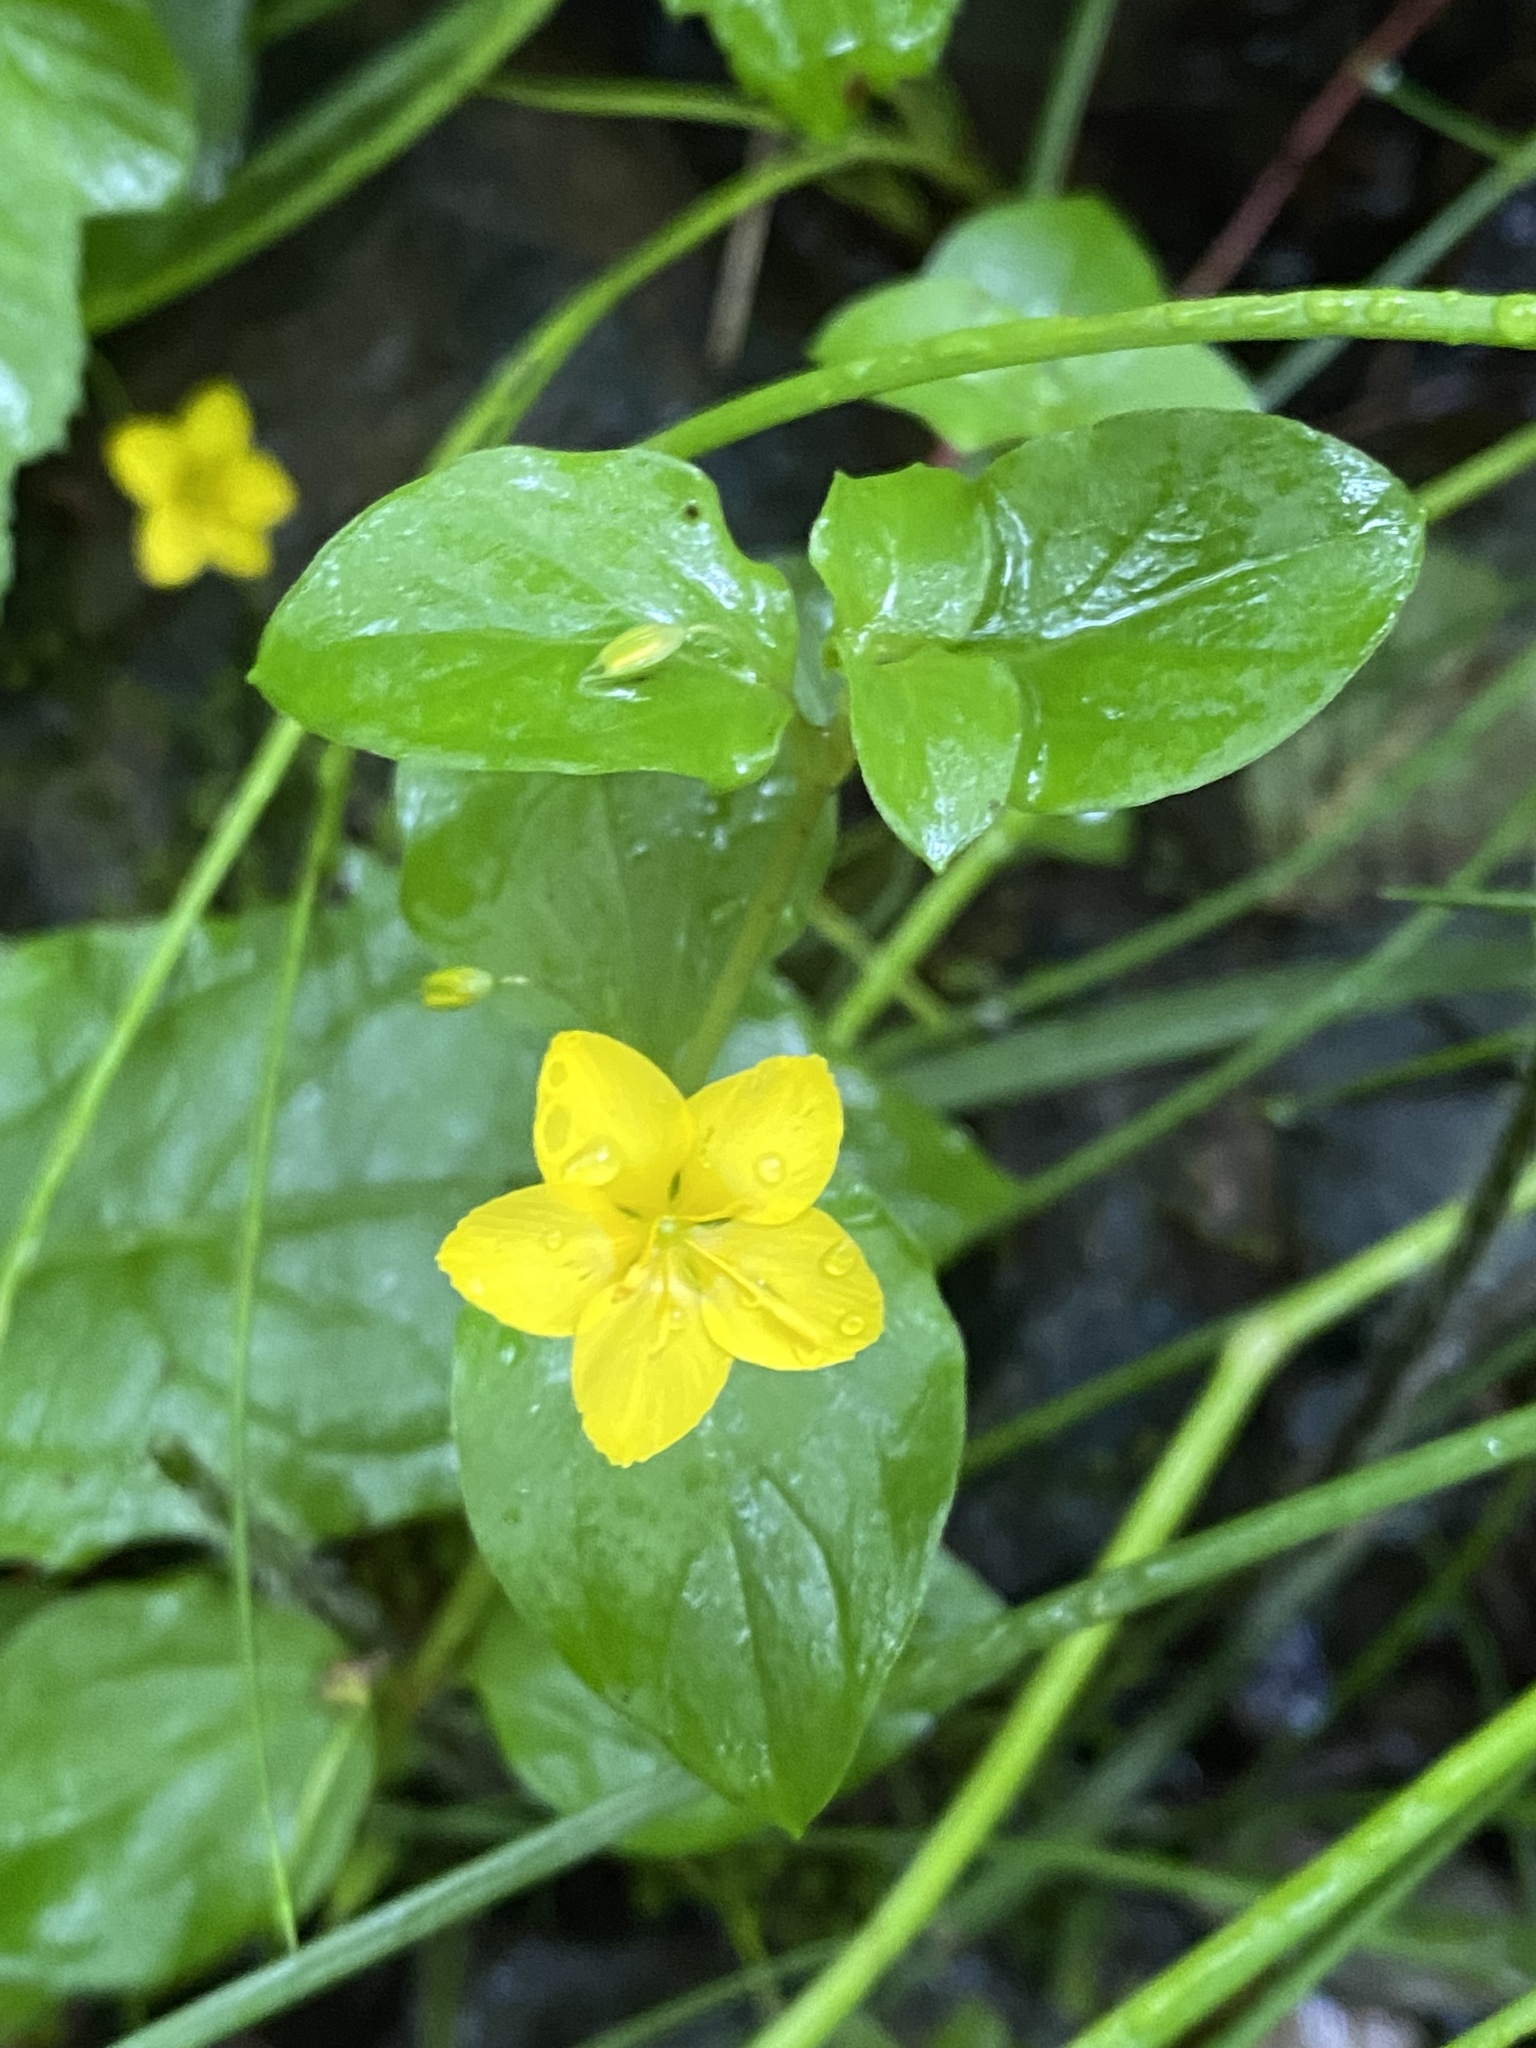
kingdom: Plantae
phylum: Tracheophyta
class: Magnoliopsida
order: Ericales
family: Primulaceae
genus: Lysimachia
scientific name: Lysimachia nemorum
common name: Yellow pimpernel
